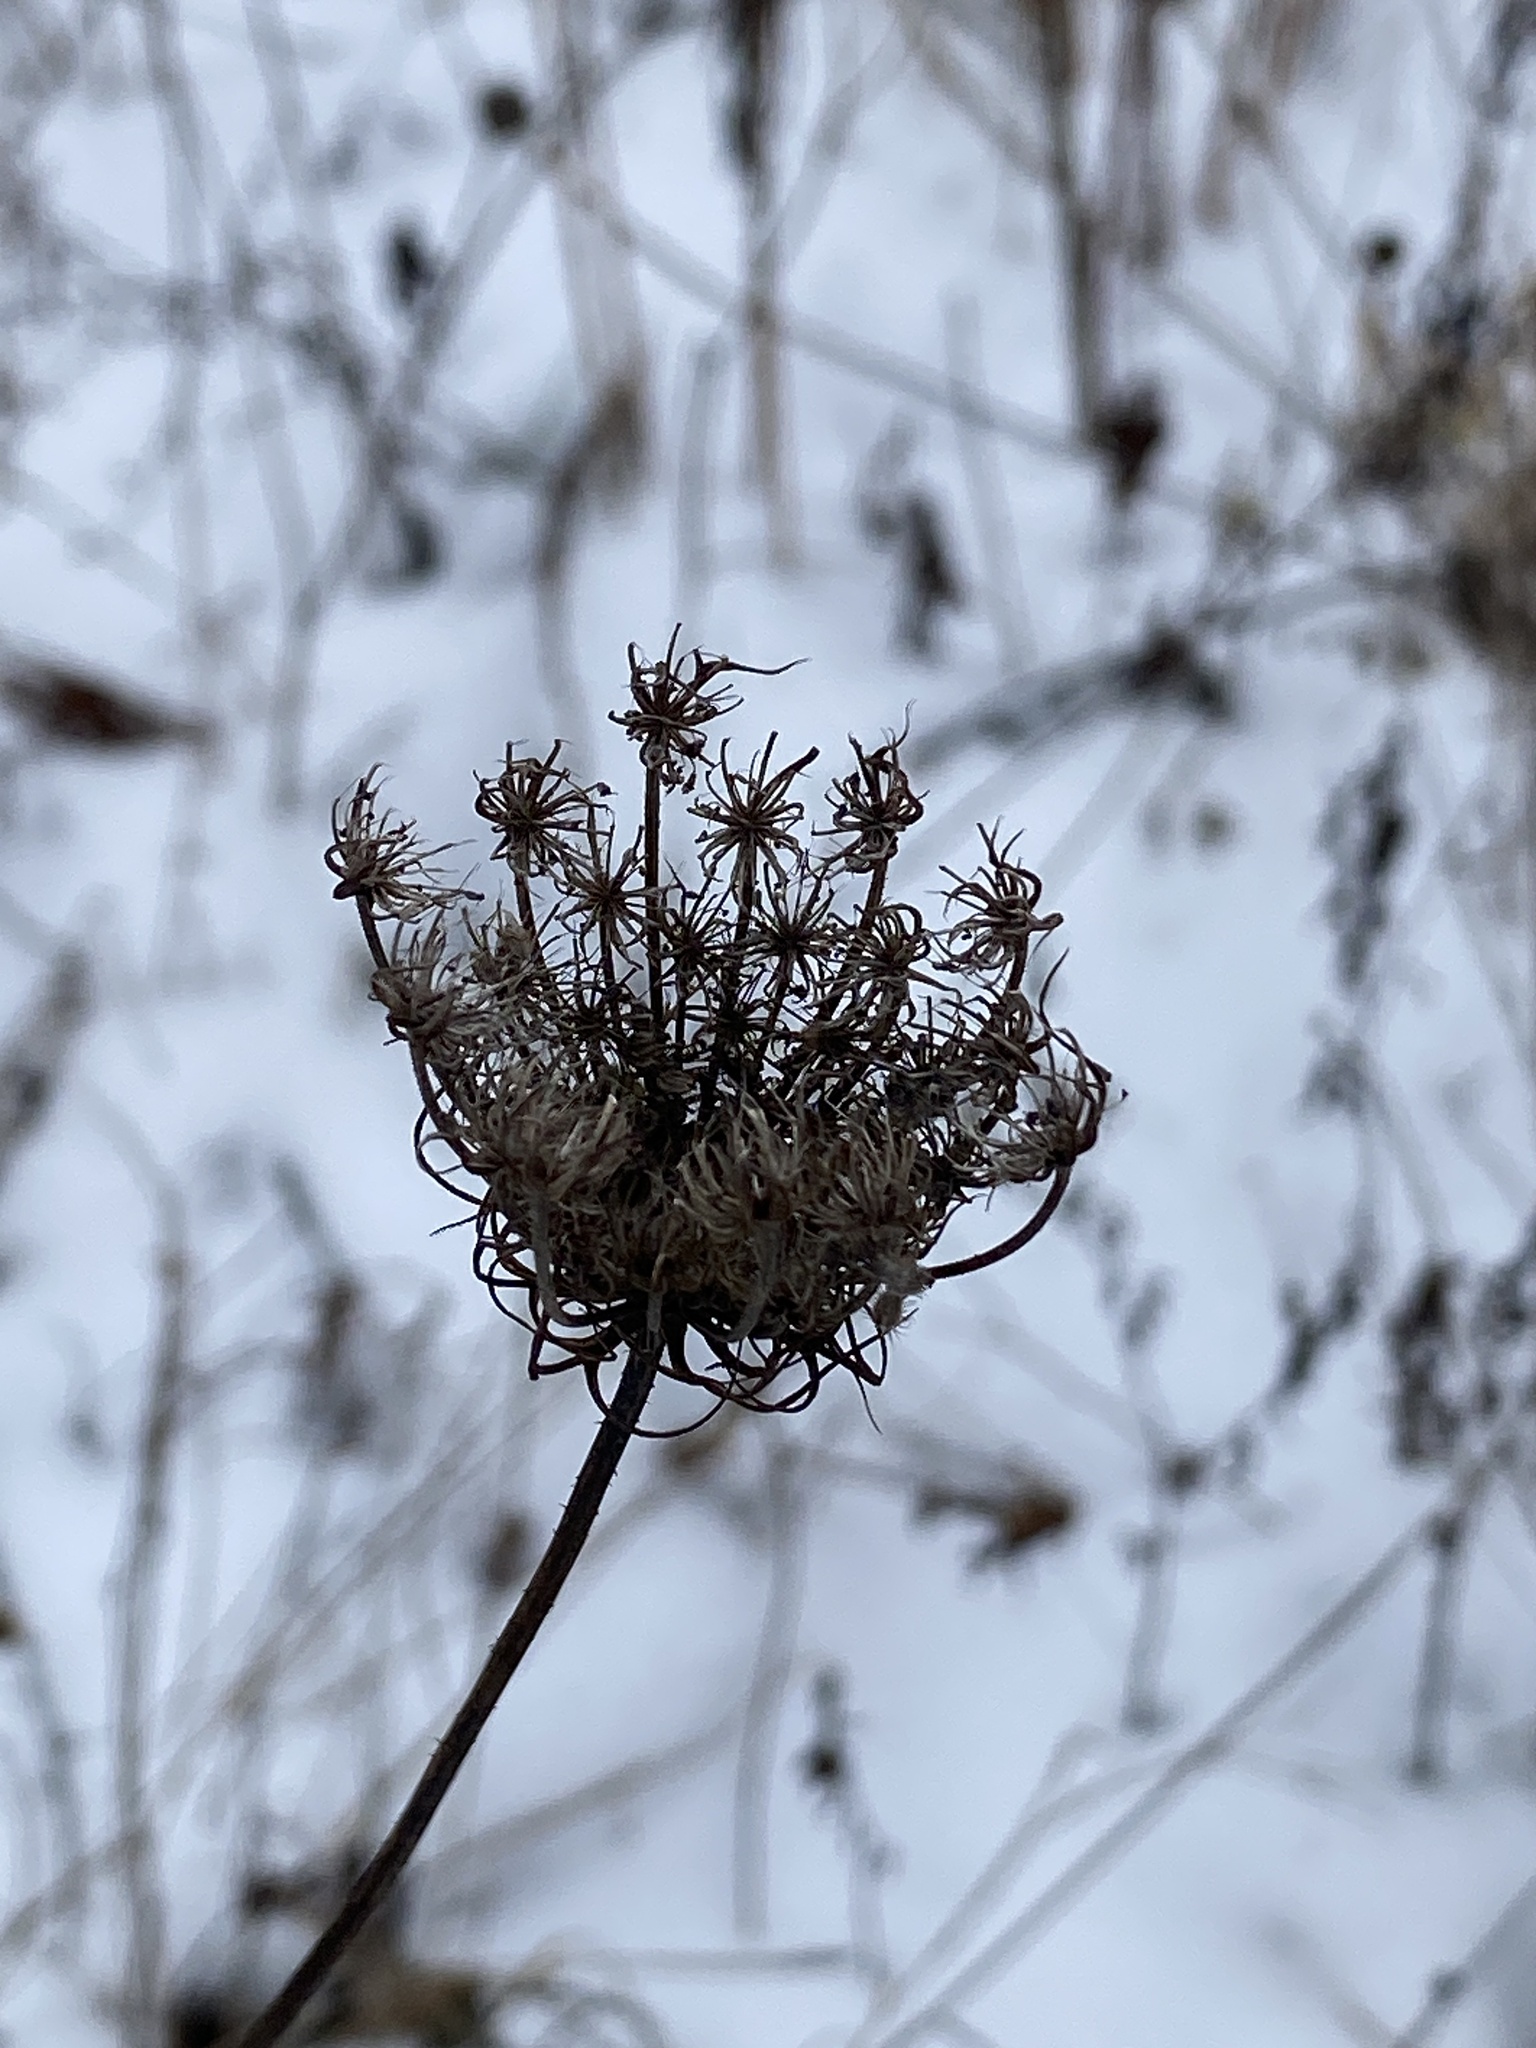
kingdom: Plantae
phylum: Tracheophyta
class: Magnoliopsida
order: Apiales
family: Apiaceae
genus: Daucus
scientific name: Daucus carota
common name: Wild carrot
